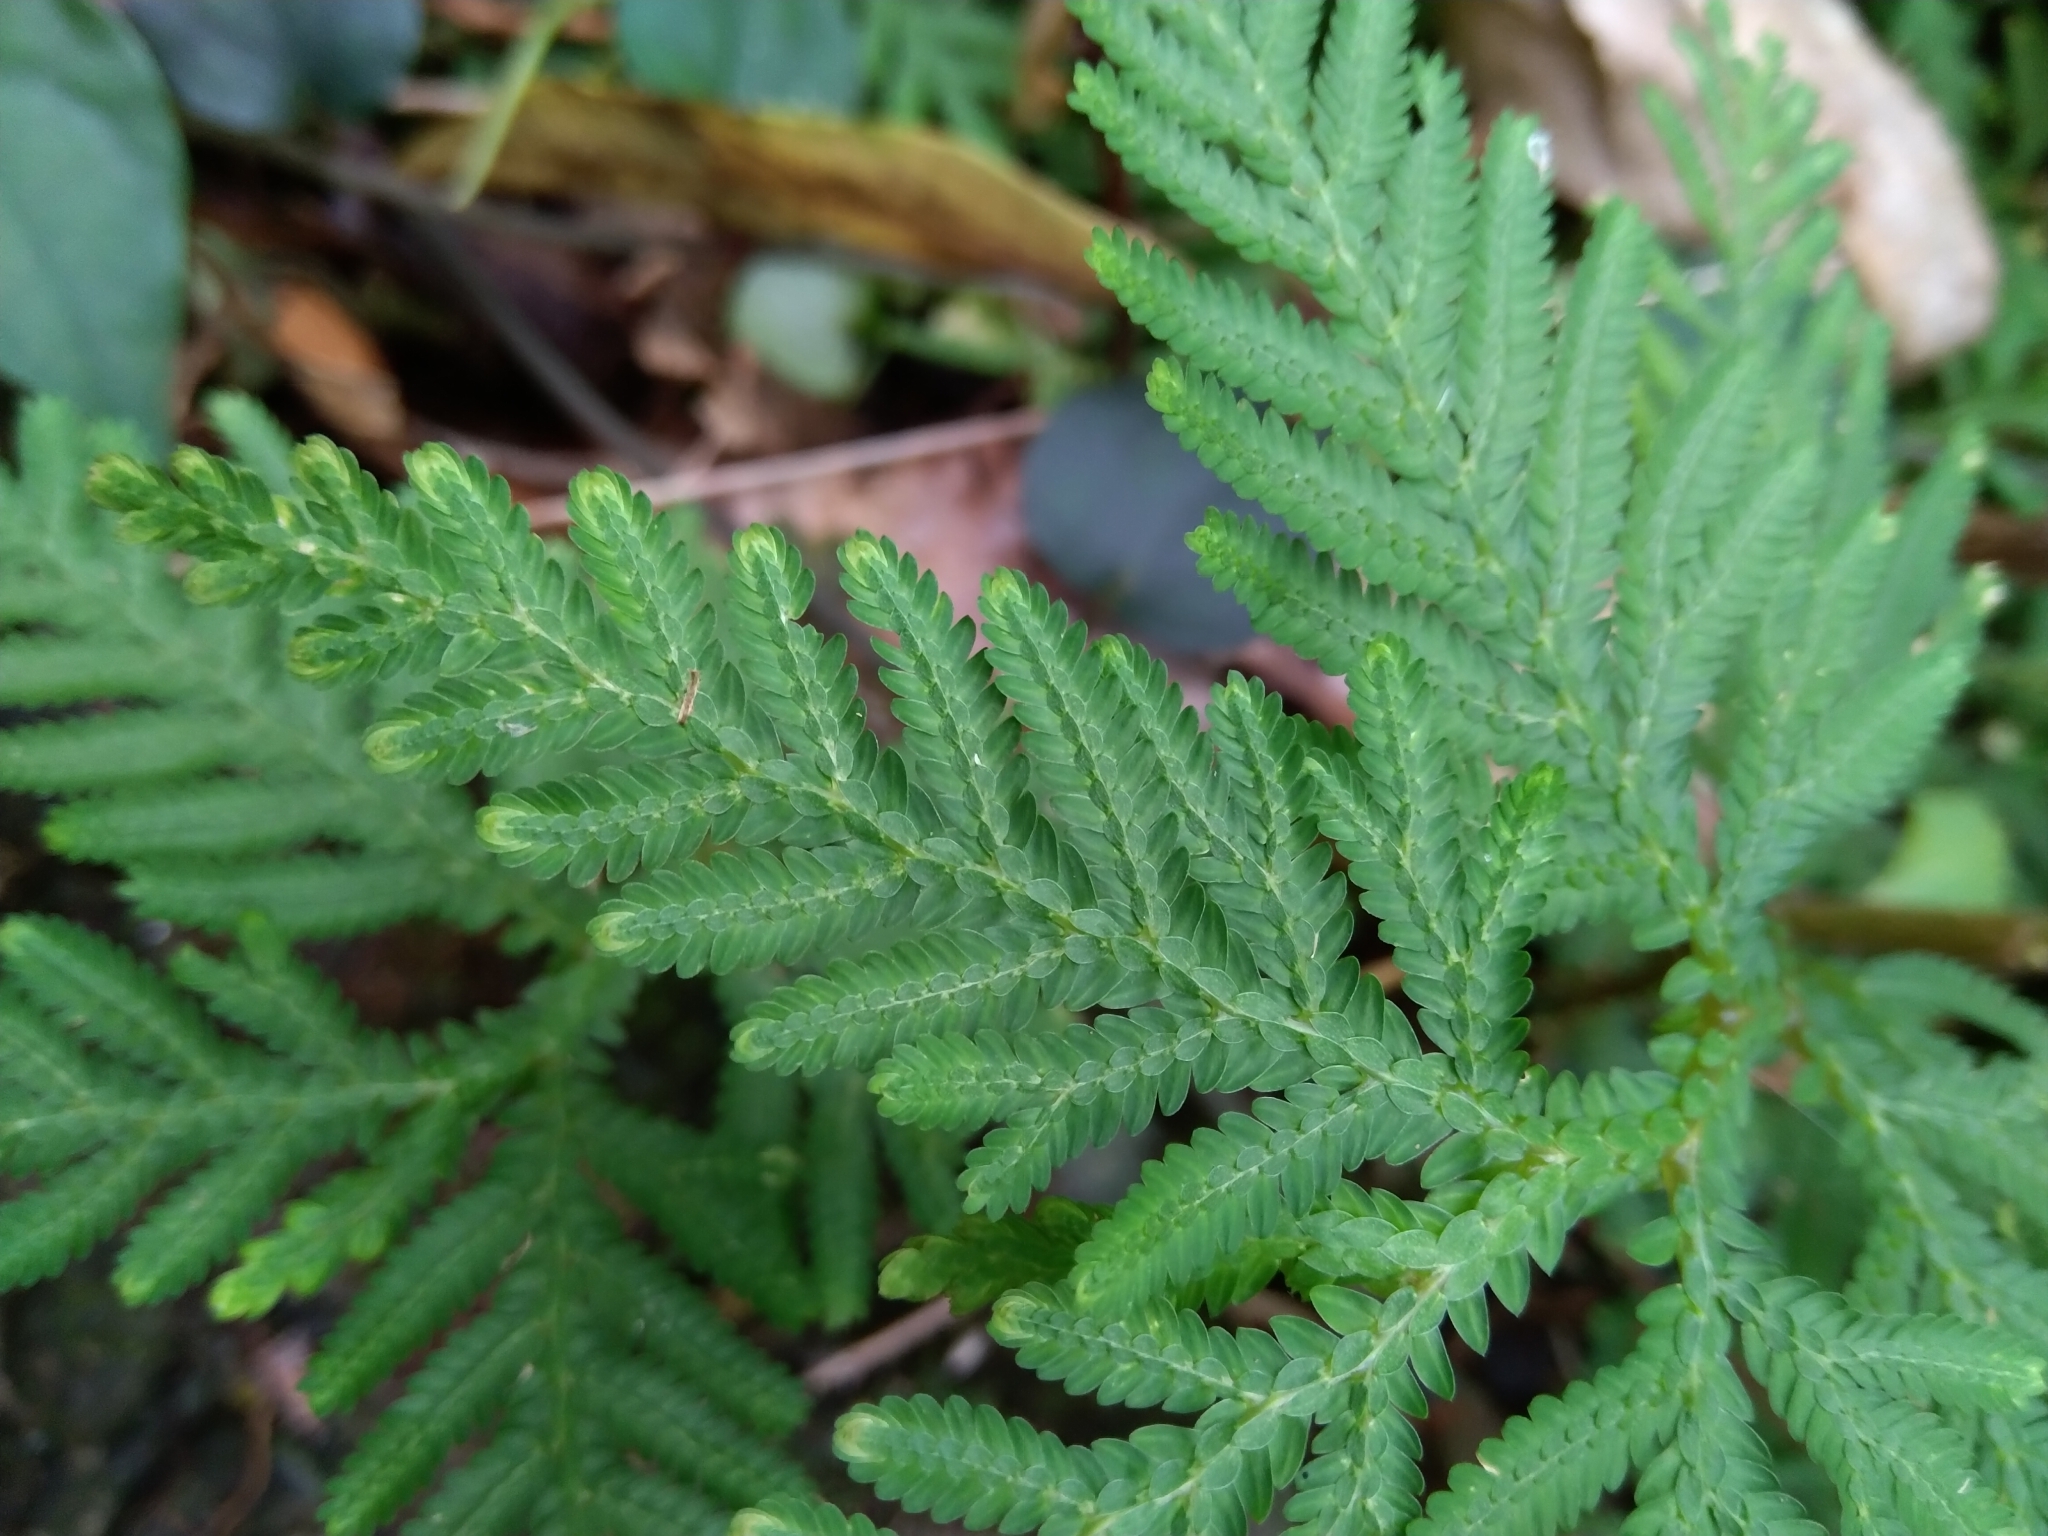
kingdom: Plantae
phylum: Tracheophyta
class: Lycopodiopsida
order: Selaginellales
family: Selaginellaceae
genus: Selaginella
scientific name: Selaginella delicatula
